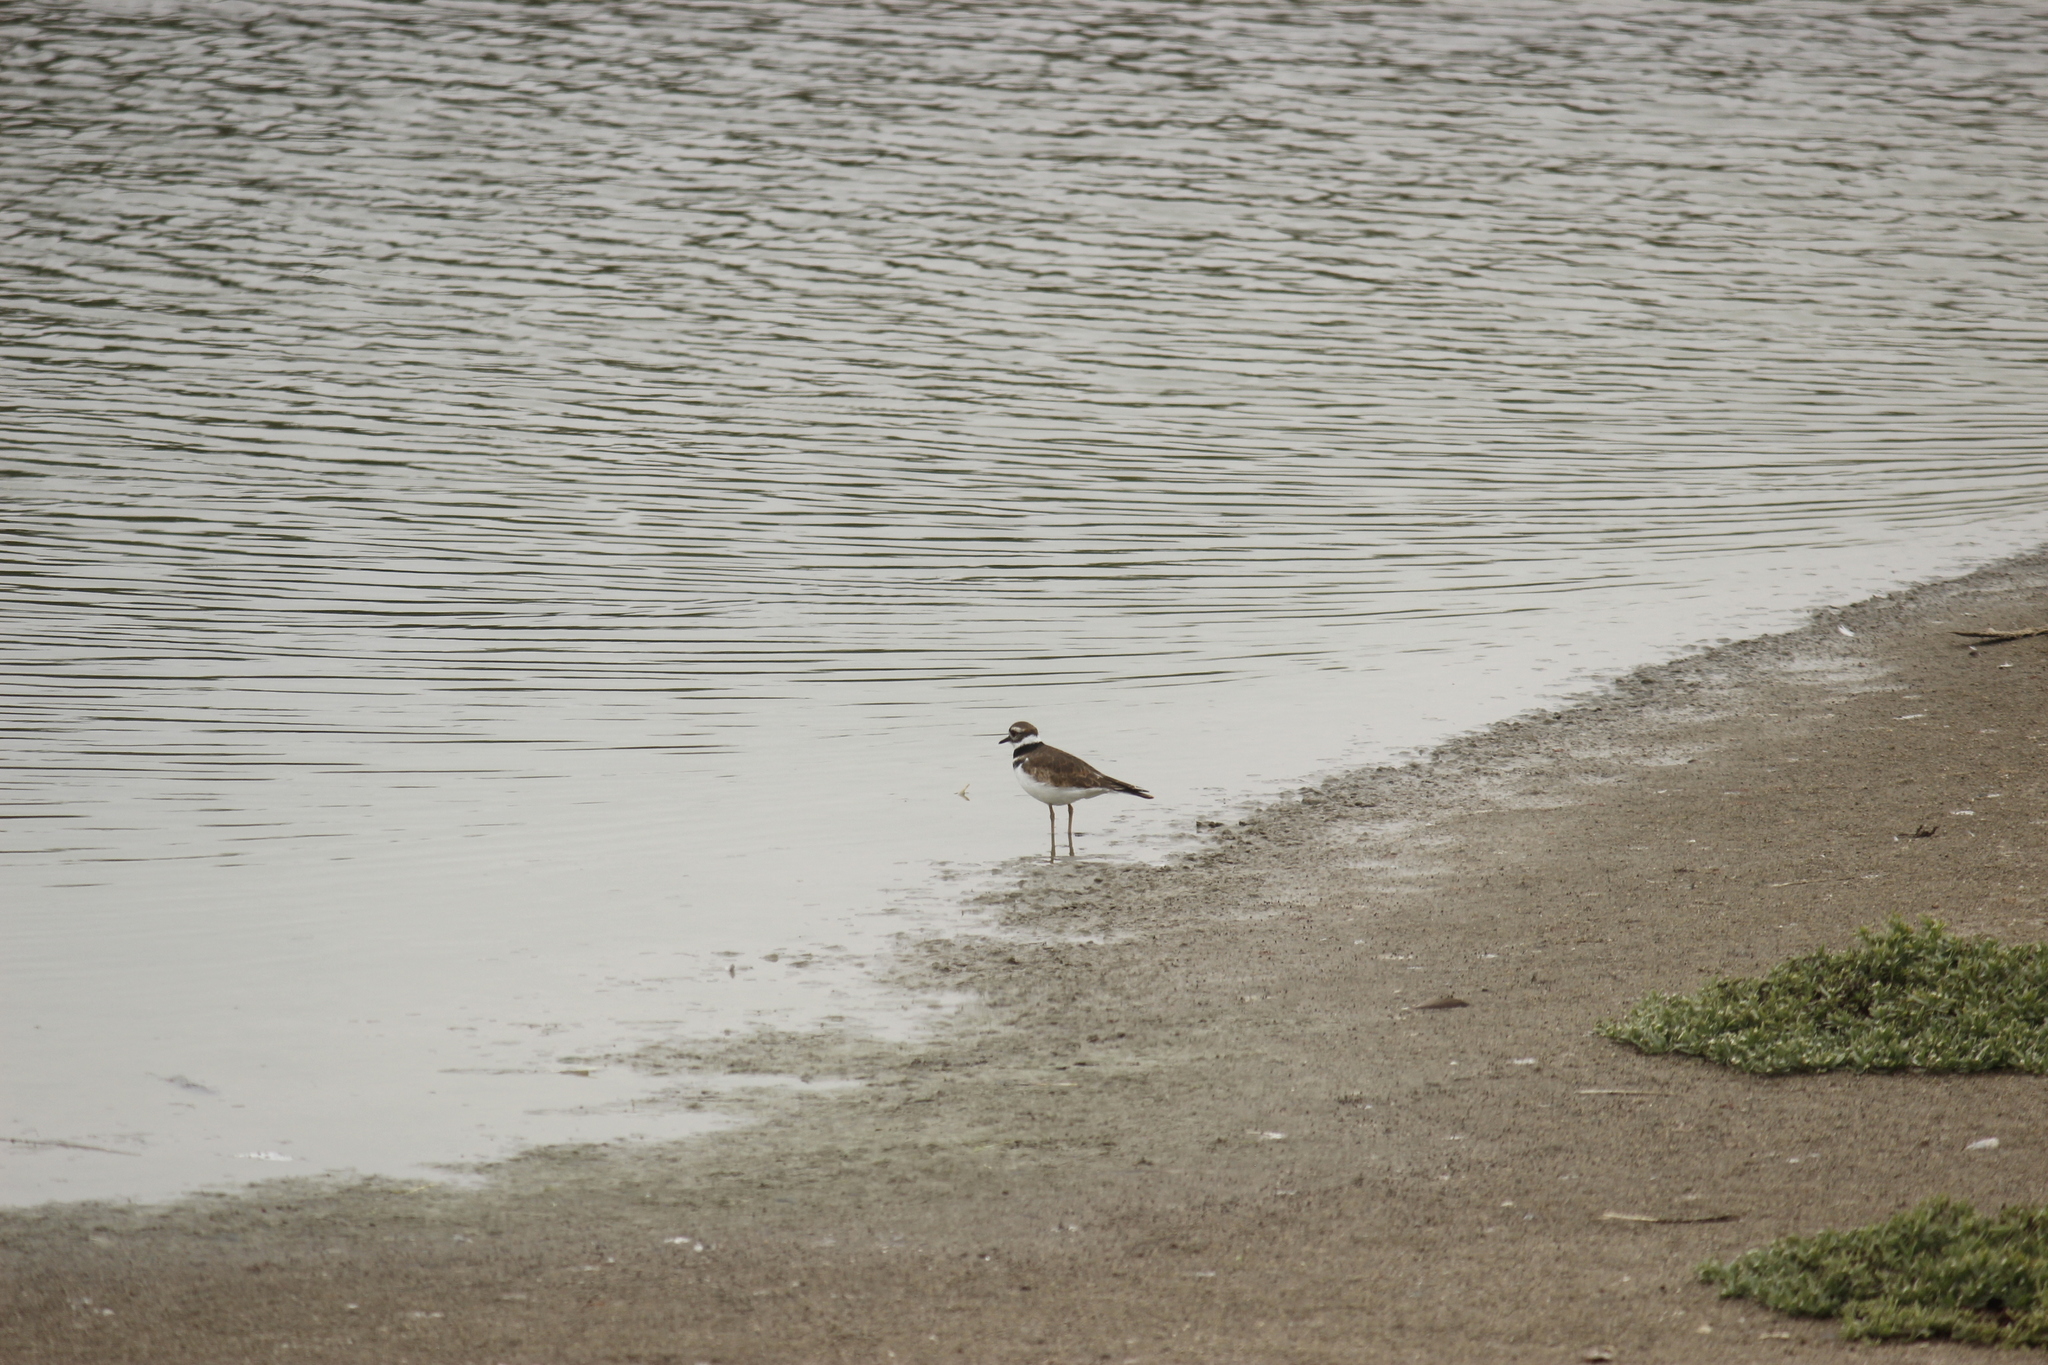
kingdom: Animalia
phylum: Chordata
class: Aves
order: Charadriiformes
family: Charadriidae
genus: Charadrius
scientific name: Charadrius vociferus
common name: Killdeer
